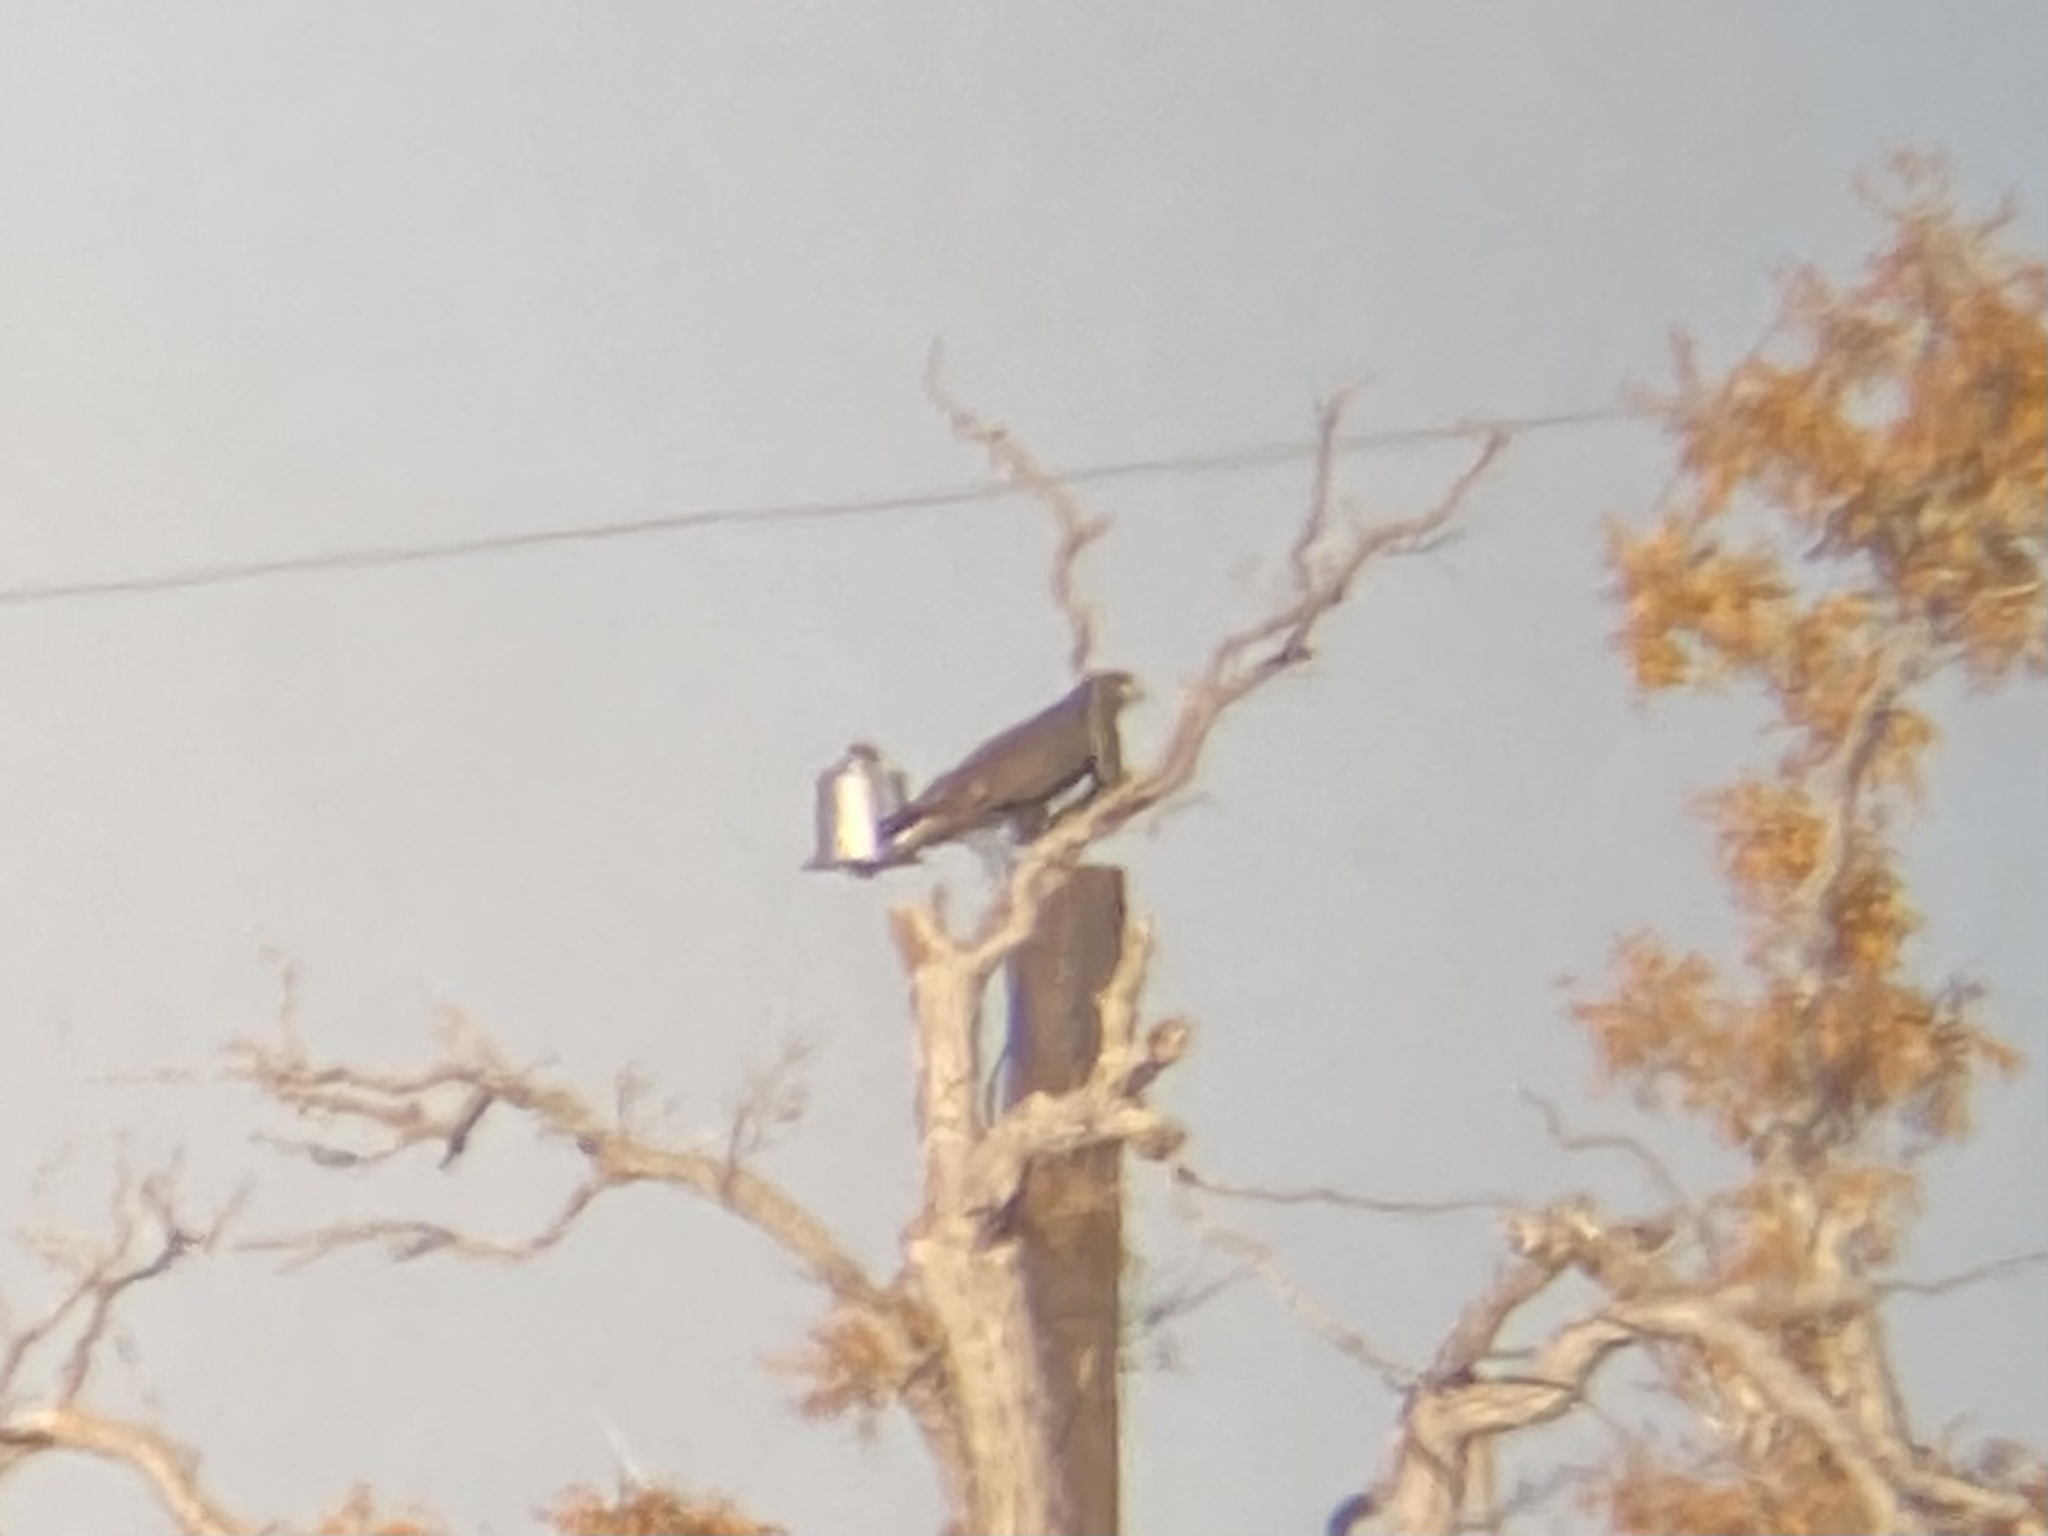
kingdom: Animalia
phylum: Chordata
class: Aves
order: Accipitriformes
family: Accipitridae
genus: Buteo
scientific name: Buteo jamaicensis
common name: Red-tailed hawk
